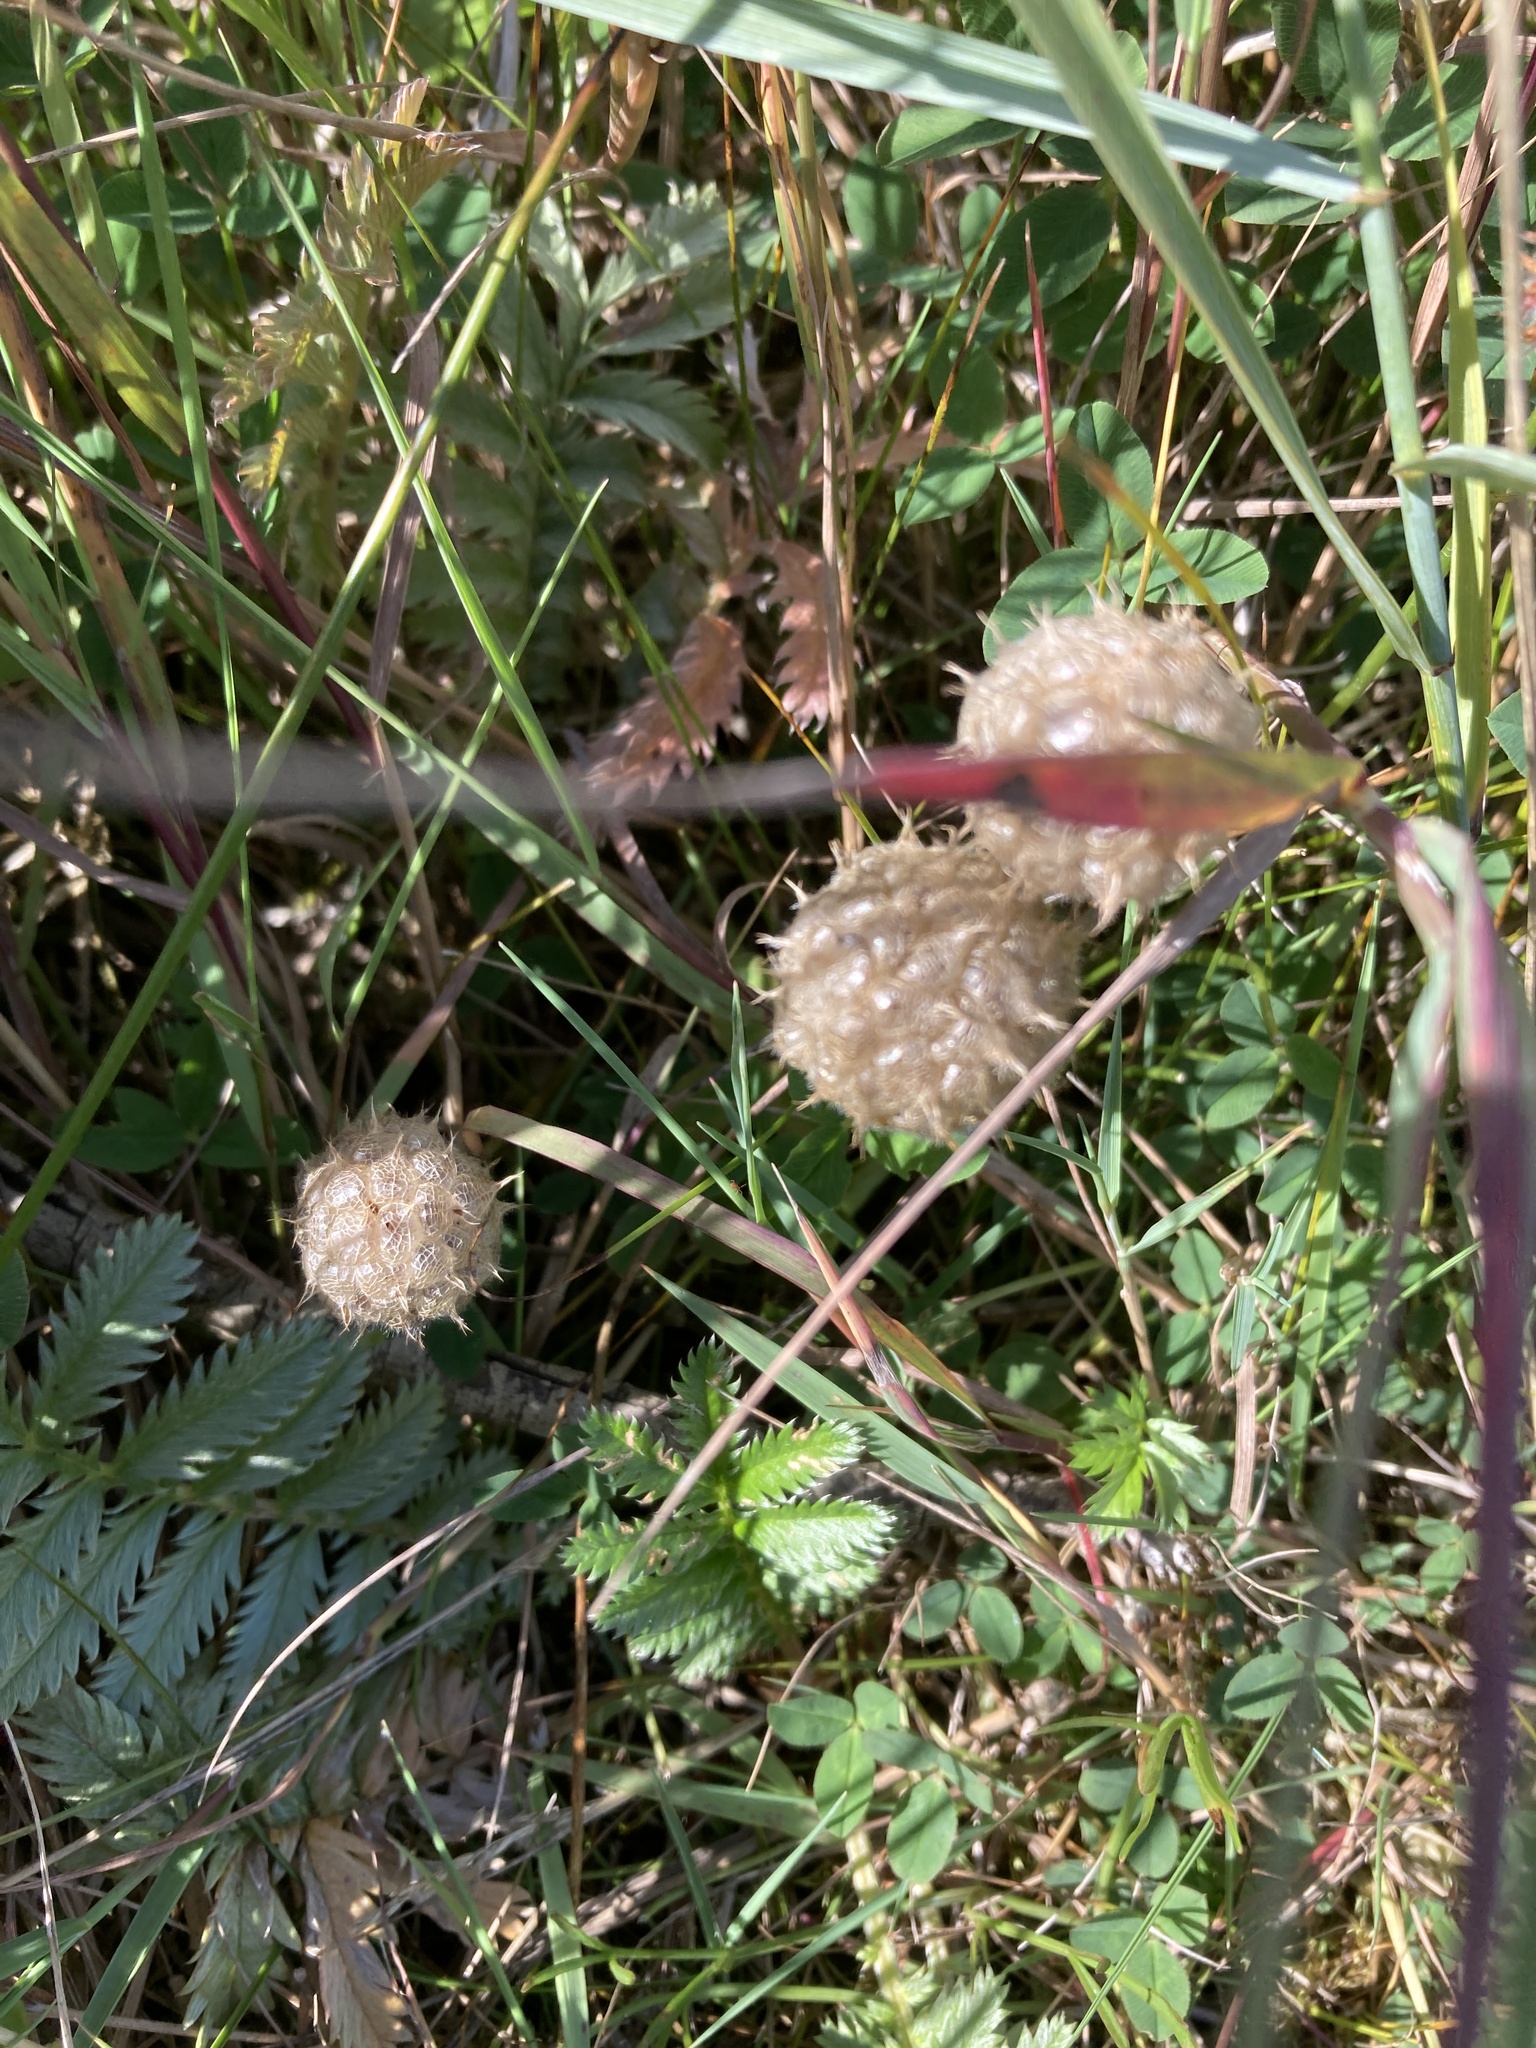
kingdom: Plantae
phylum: Tracheophyta
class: Magnoliopsida
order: Fabales
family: Fabaceae
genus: Trifolium
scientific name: Trifolium fragiferum
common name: Strawberry clover
